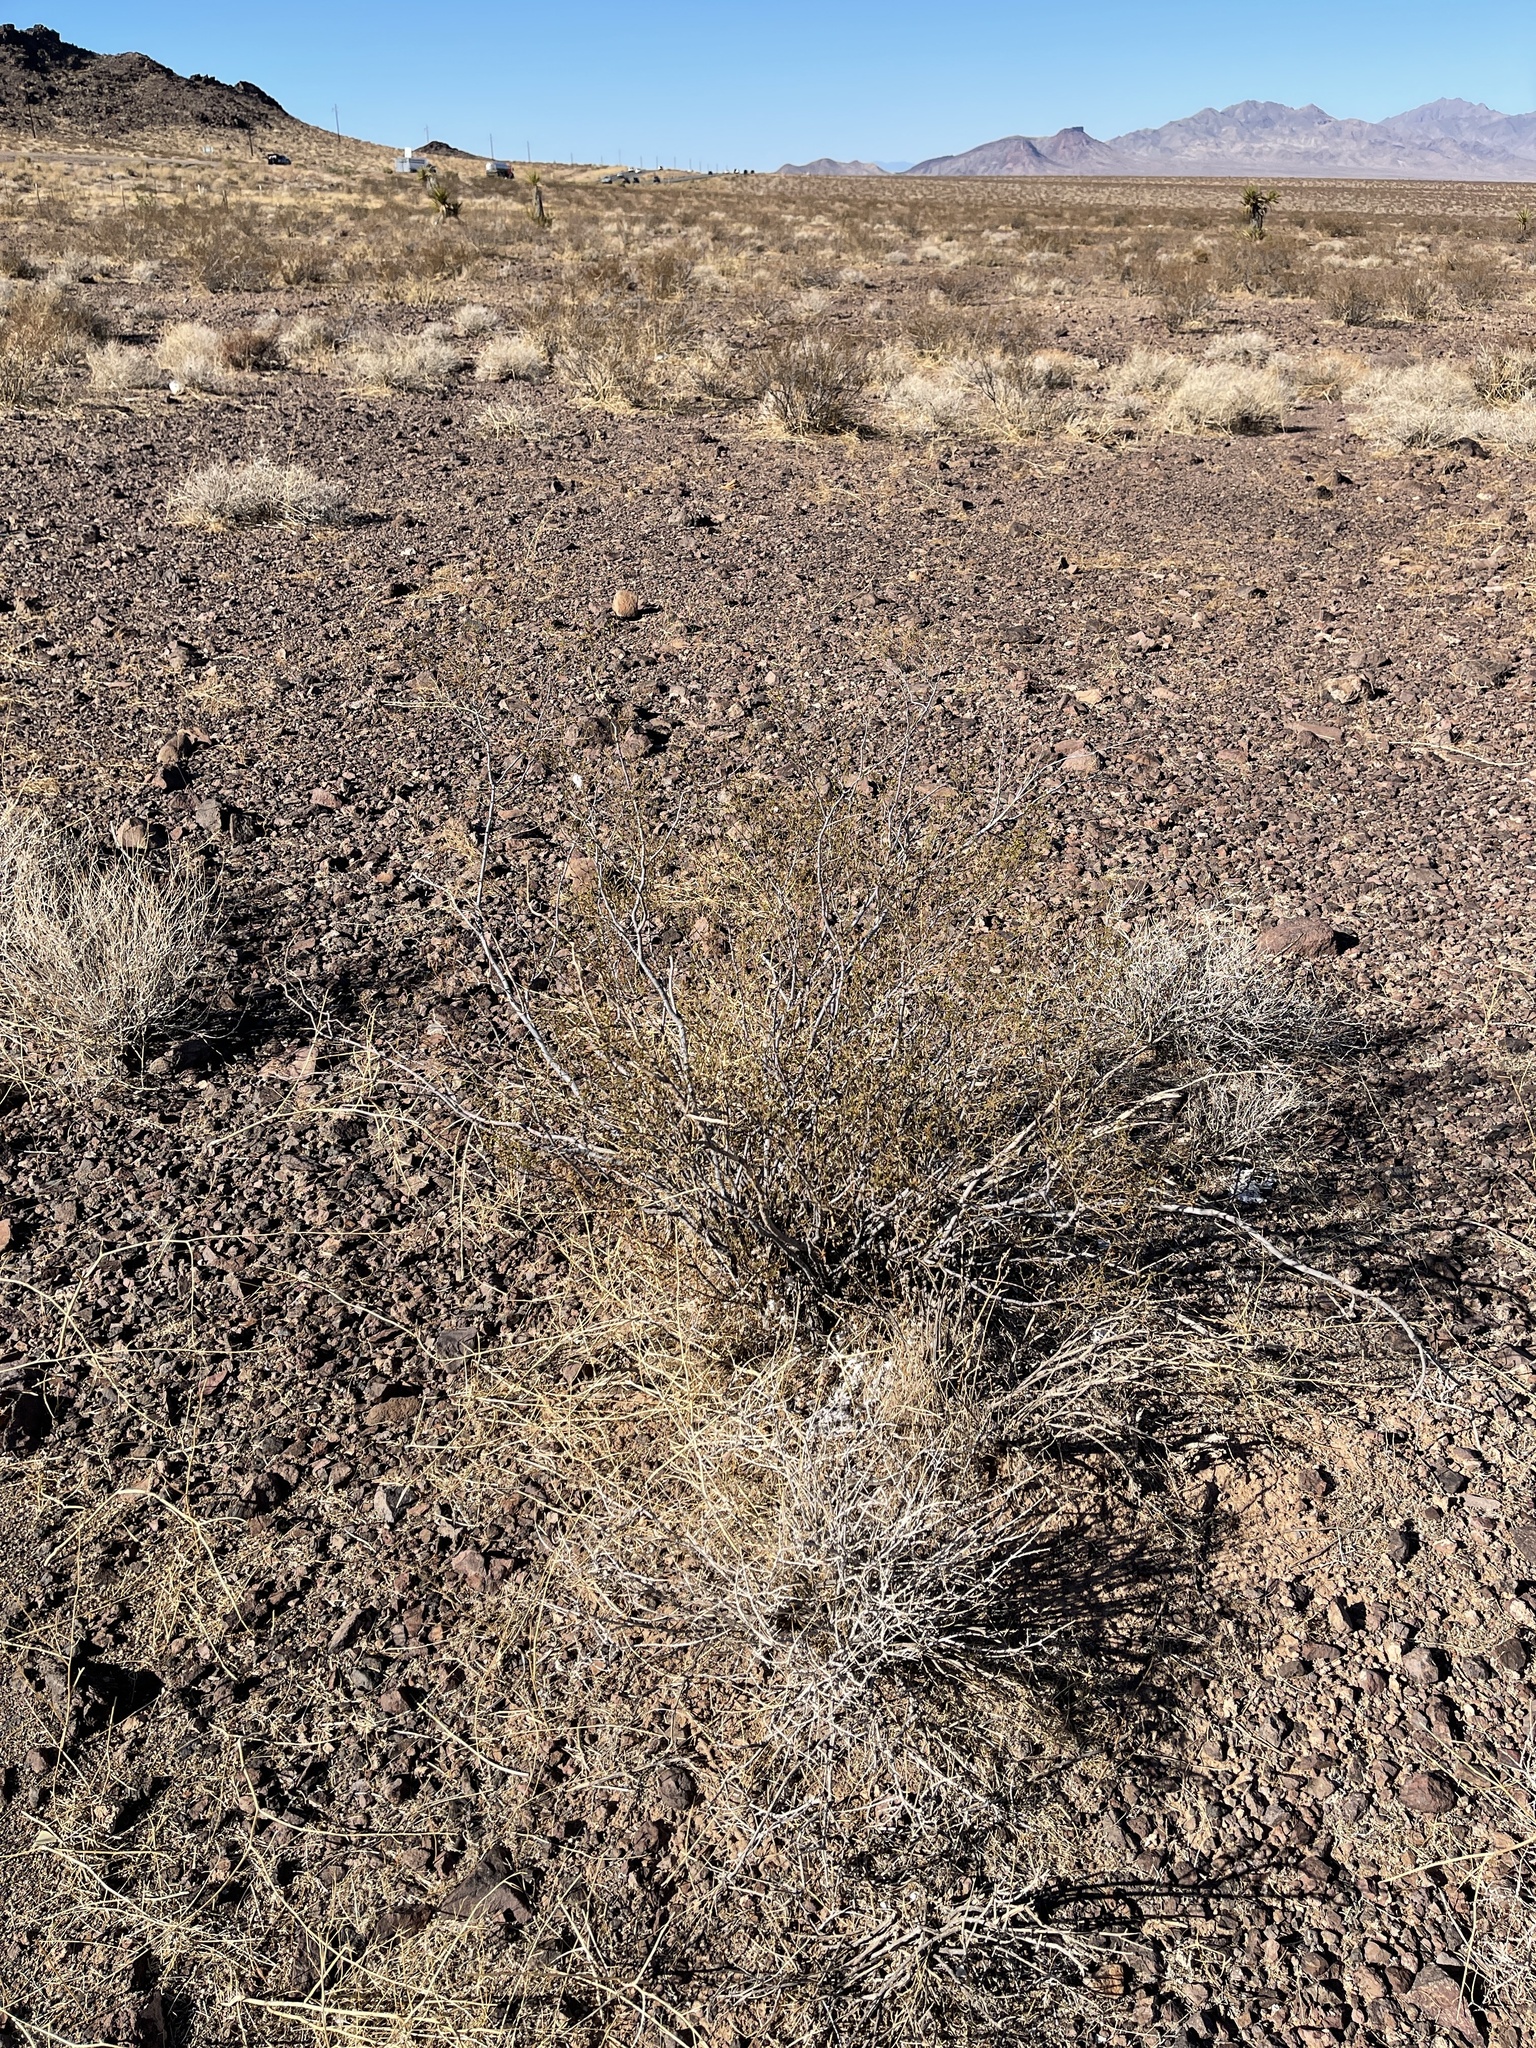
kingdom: Plantae
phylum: Tracheophyta
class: Magnoliopsida
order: Zygophyllales
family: Zygophyllaceae
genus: Larrea
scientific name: Larrea tridentata
